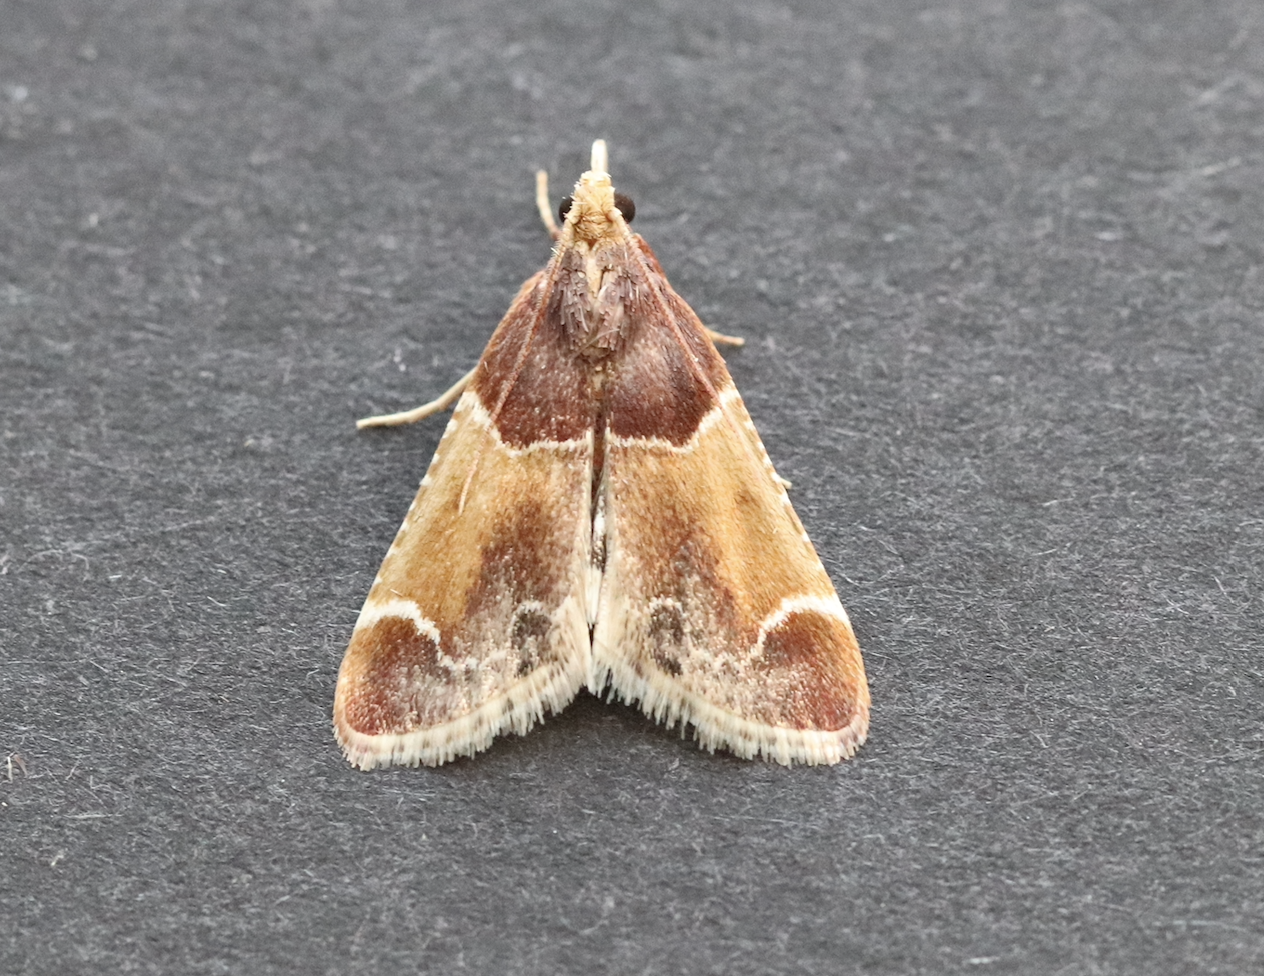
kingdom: Animalia
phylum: Arthropoda
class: Insecta
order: Lepidoptera
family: Pyralidae
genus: Pyralis
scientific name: Pyralis farinalis
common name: Meal moth
